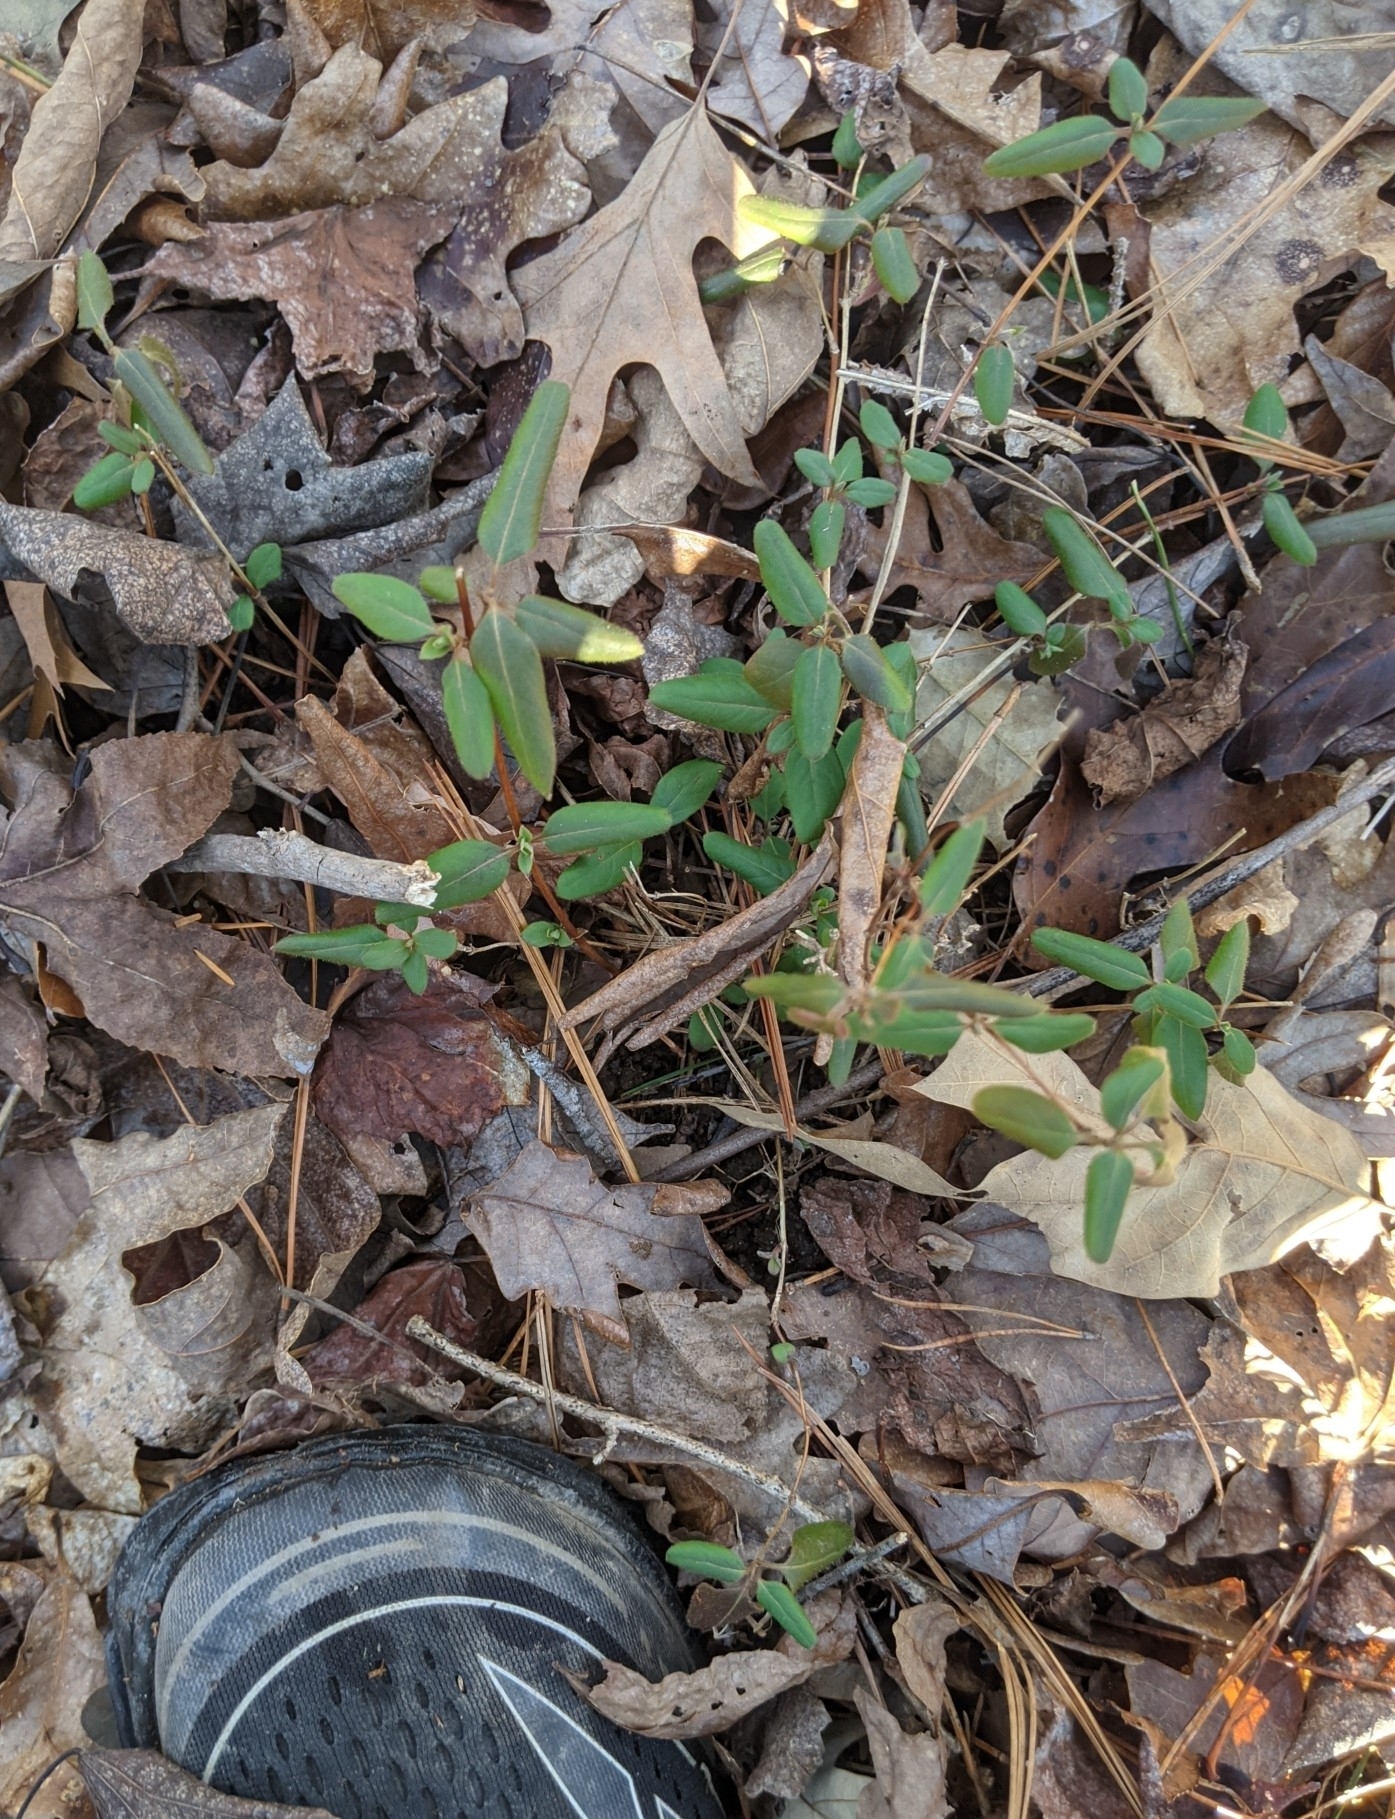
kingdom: Plantae
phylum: Tracheophyta
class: Magnoliopsida
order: Dipsacales
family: Caprifoliaceae
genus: Lonicera
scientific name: Lonicera japonica
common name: Japanese honeysuckle
